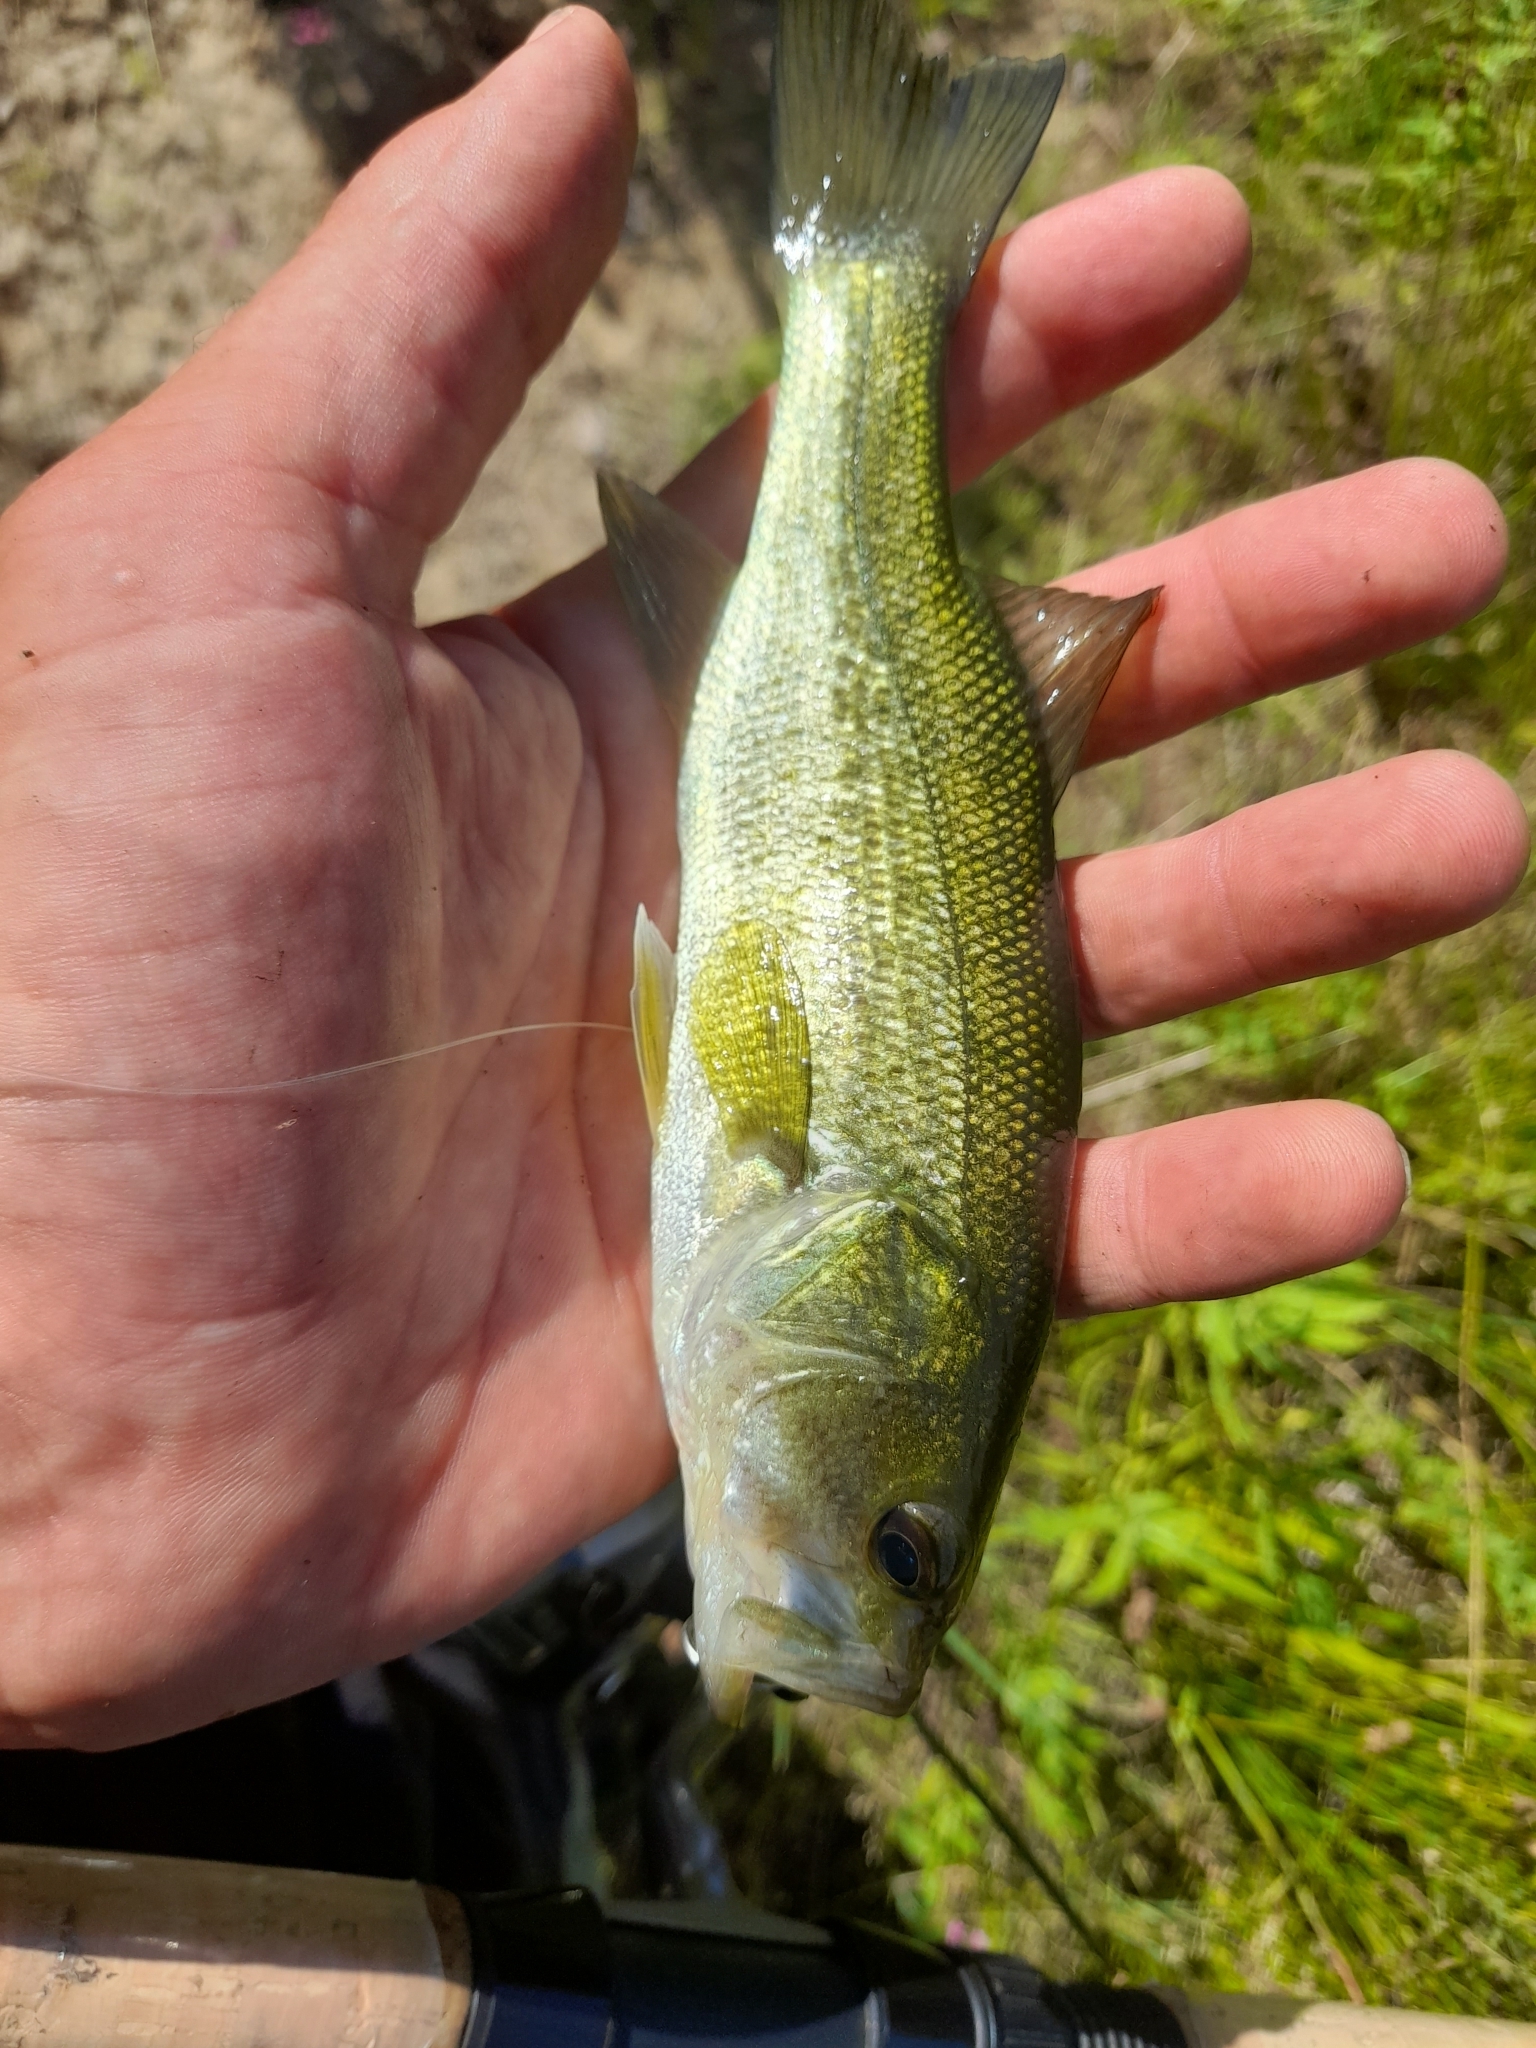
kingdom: Animalia
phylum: Chordata
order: Perciformes
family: Centrarchidae
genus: Micropterus
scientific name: Micropterus
